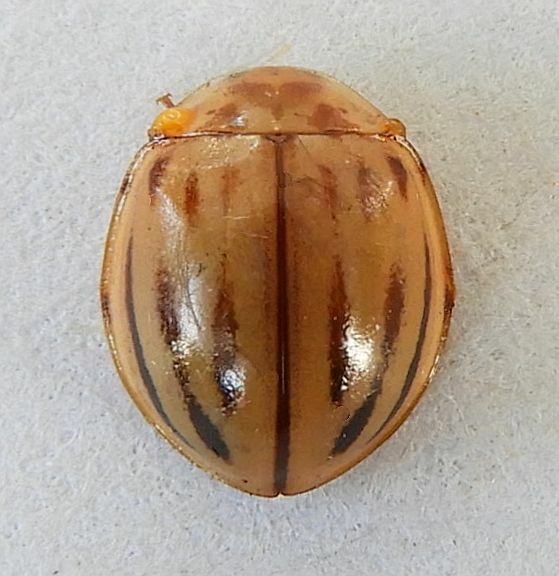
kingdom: Animalia
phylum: Arthropoda
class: Insecta
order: Coleoptera
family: Coccinellidae
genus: Myzia
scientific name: Myzia interrupta
